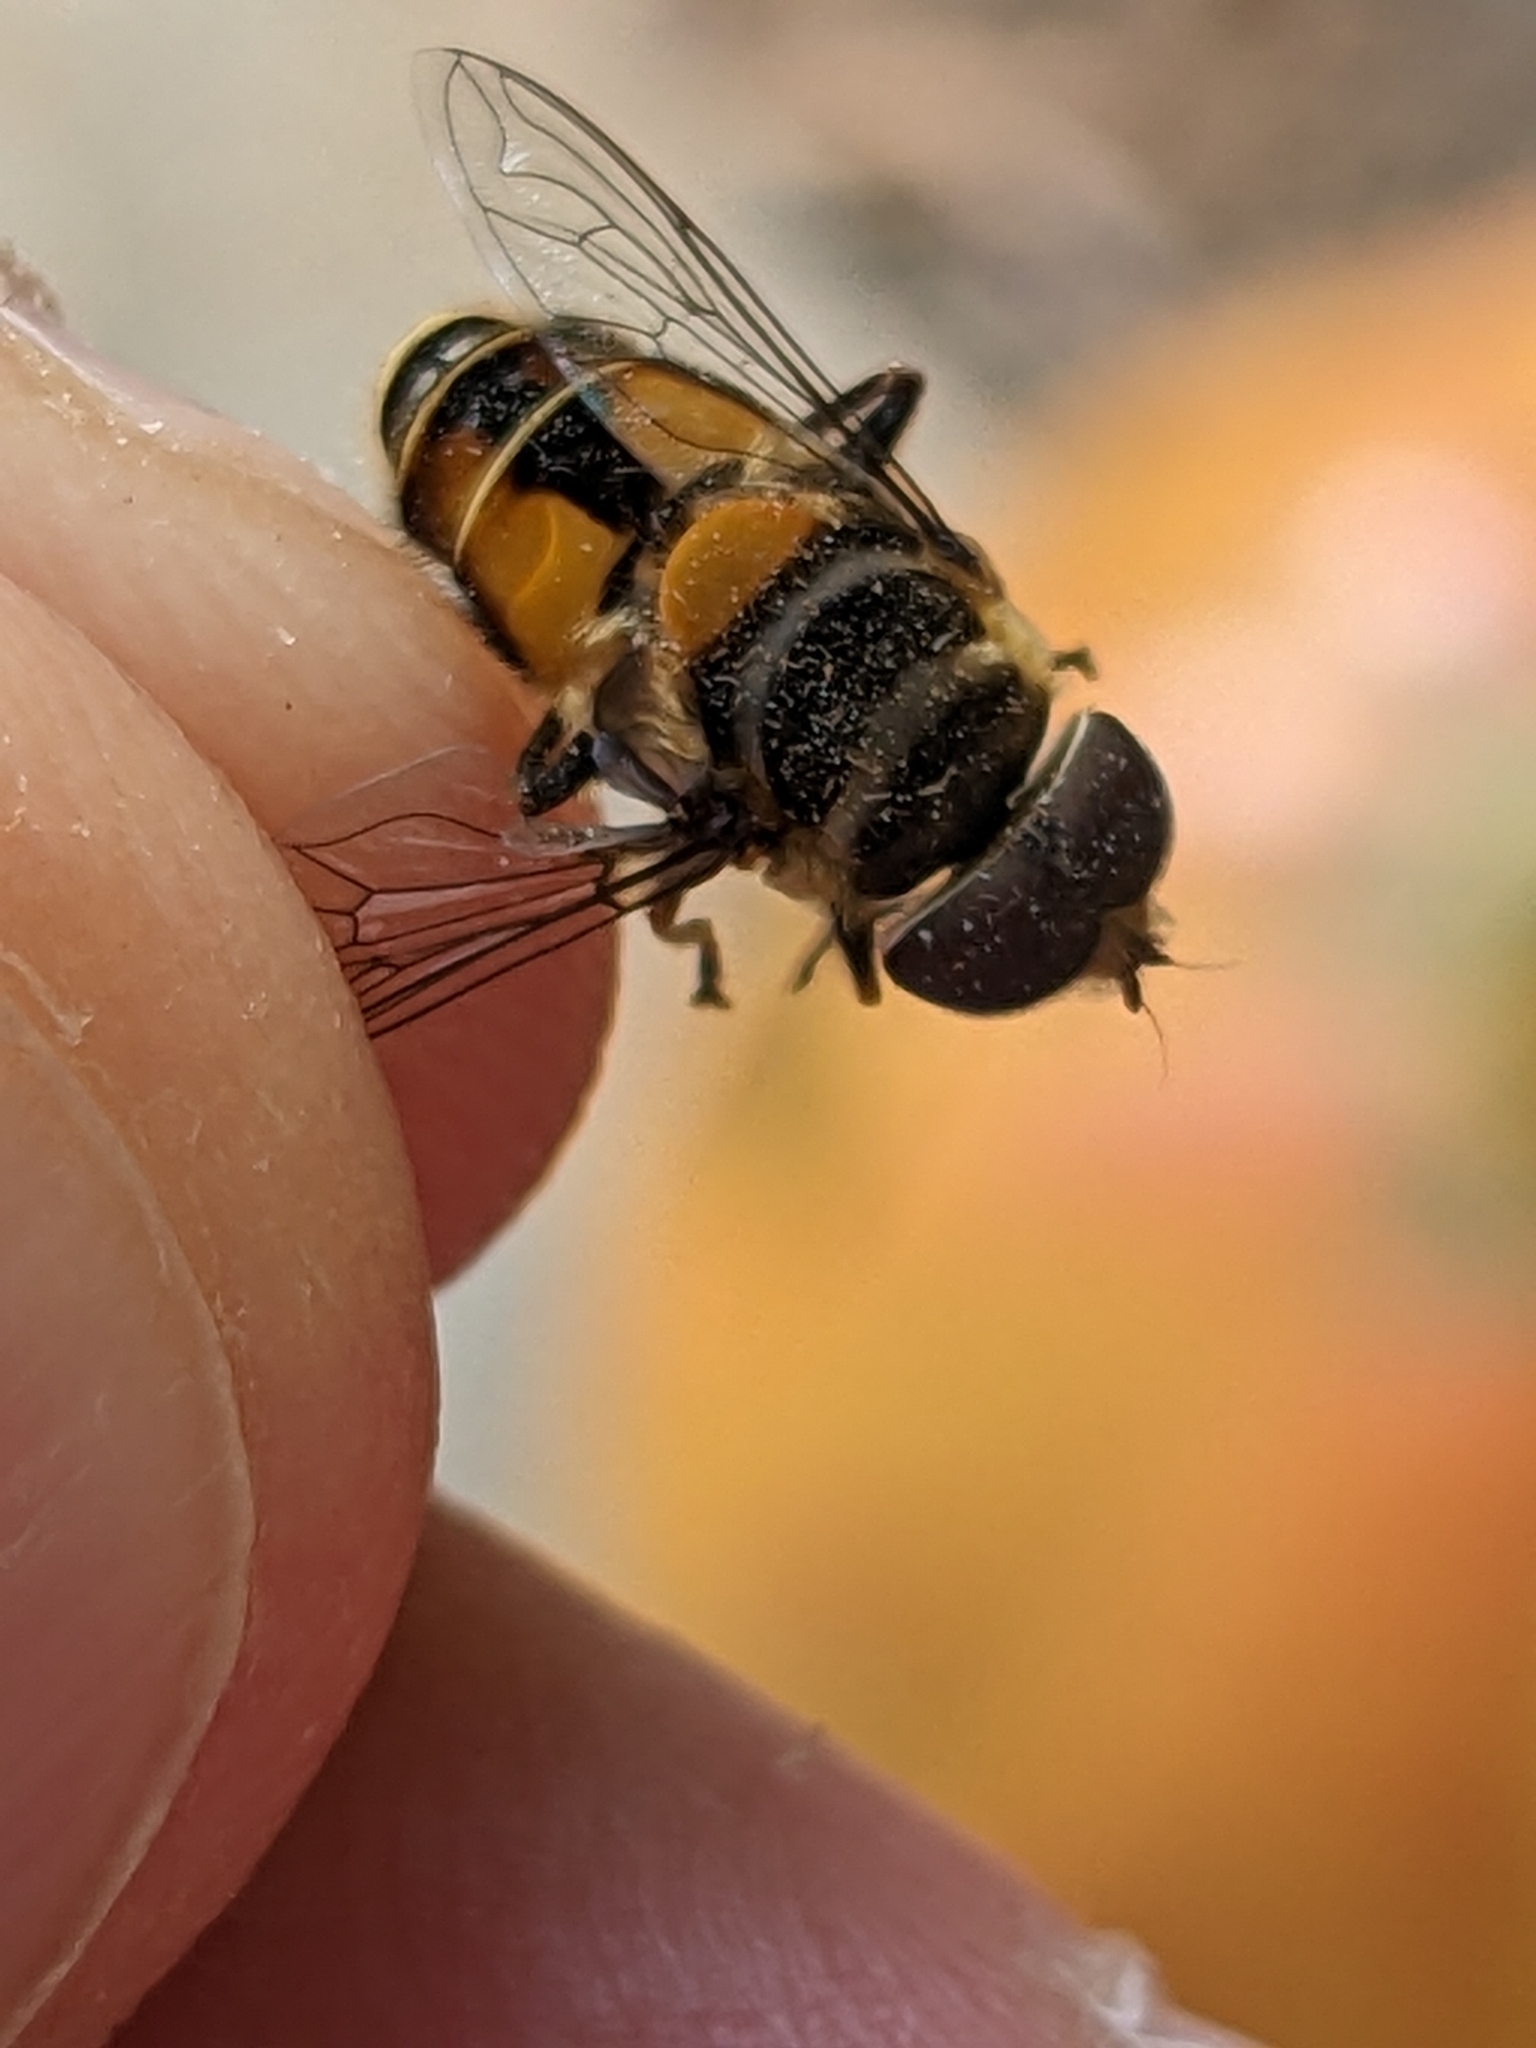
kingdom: Animalia
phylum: Arthropoda
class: Insecta
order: Diptera
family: Syrphidae
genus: Palpada
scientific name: Palpada agrorum
